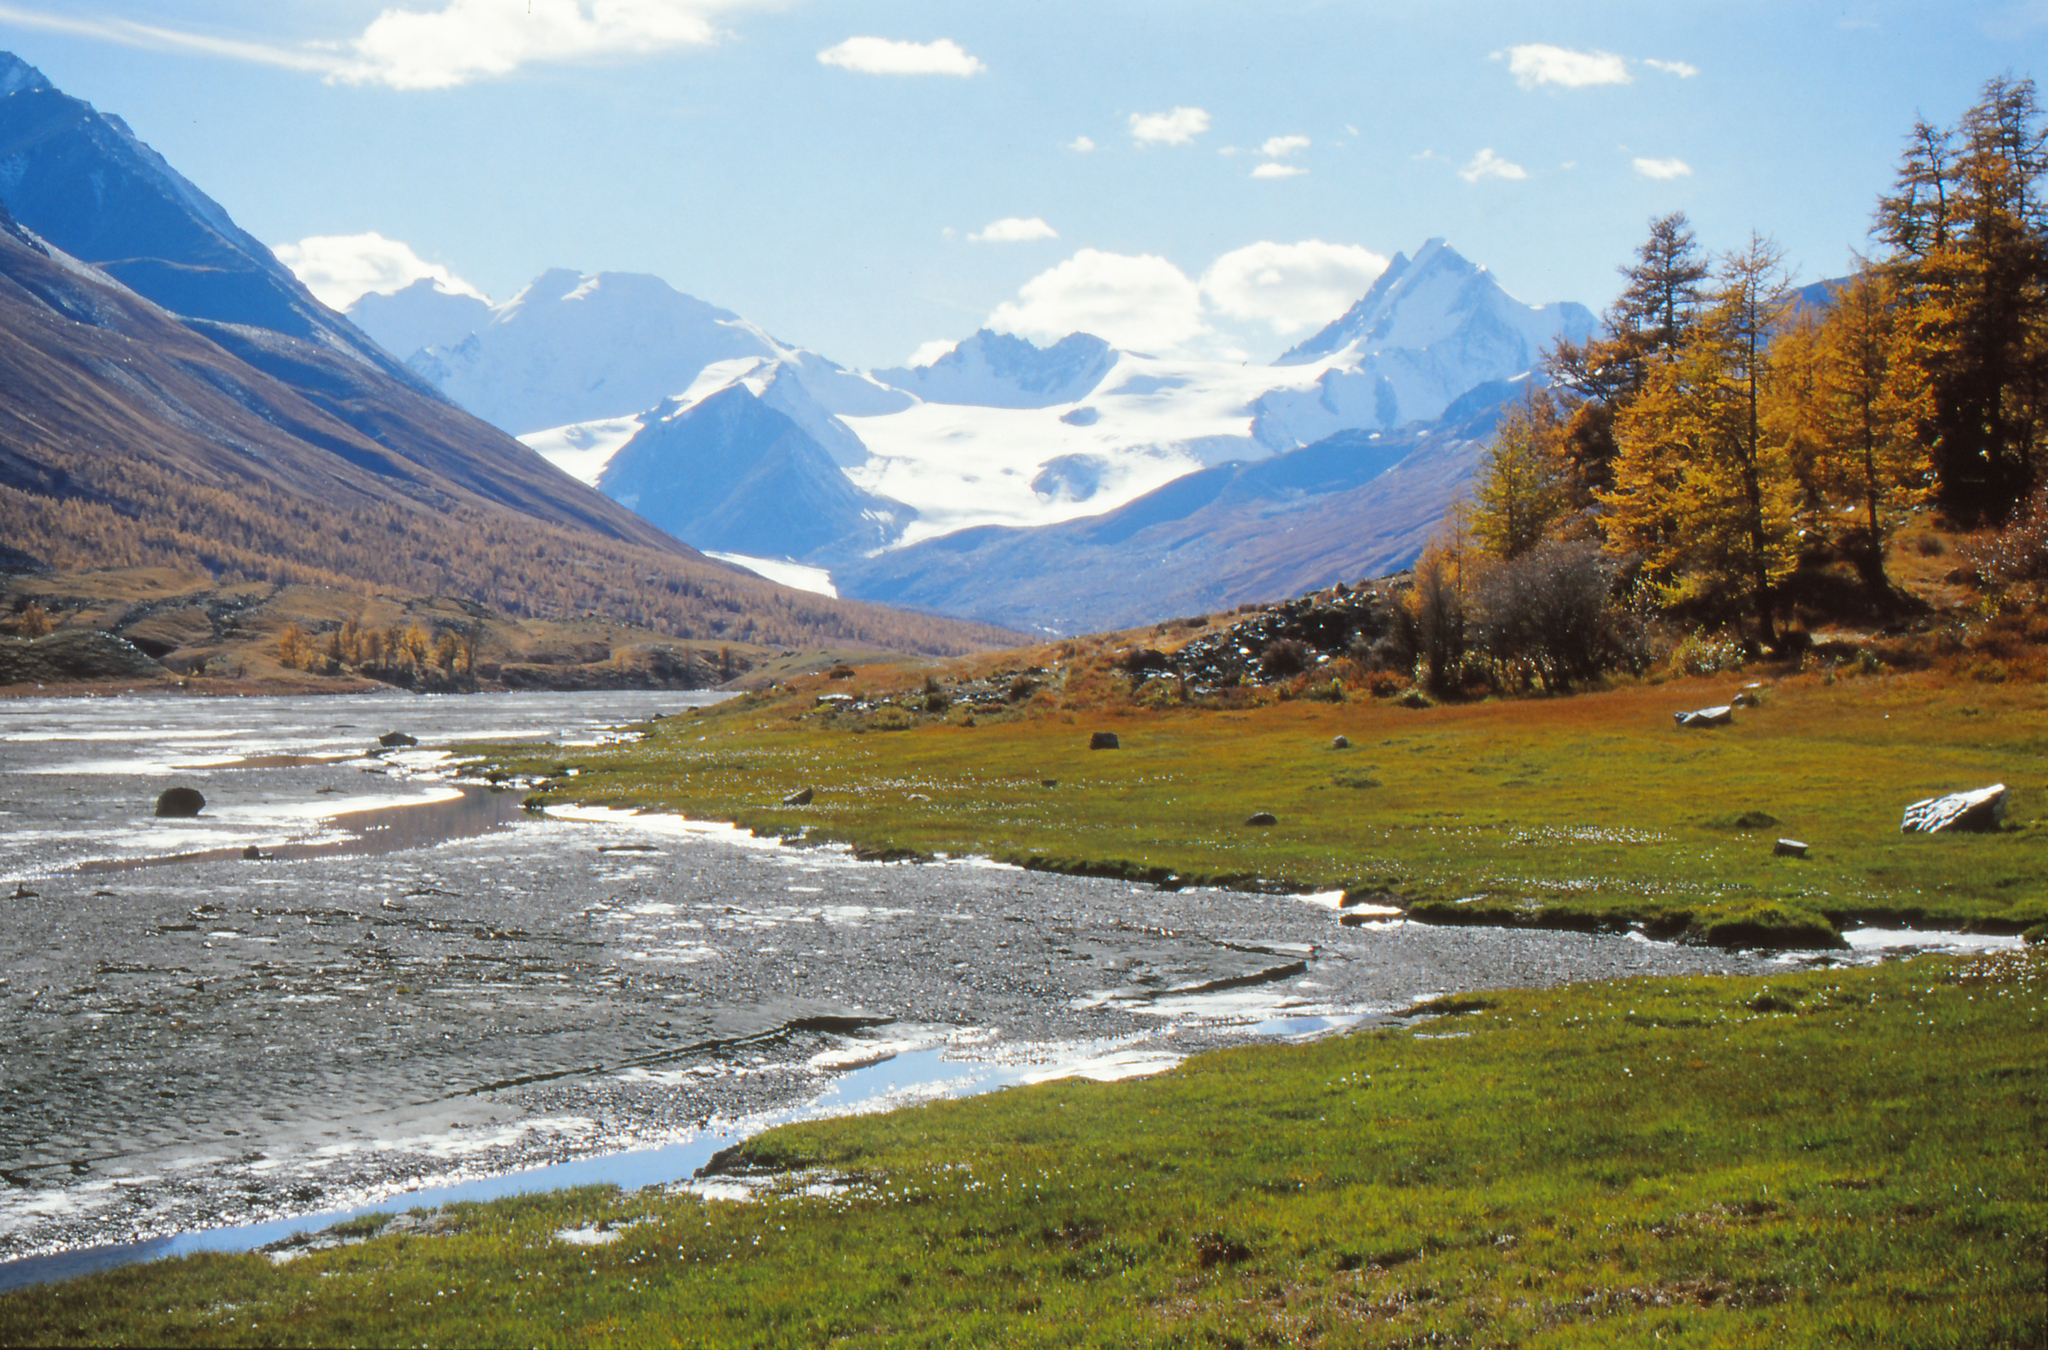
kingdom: Plantae
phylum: Tracheophyta
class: Pinopsida
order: Pinales
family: Pinaceae
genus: Larix
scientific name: Larix sibirica
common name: Siberian larch
